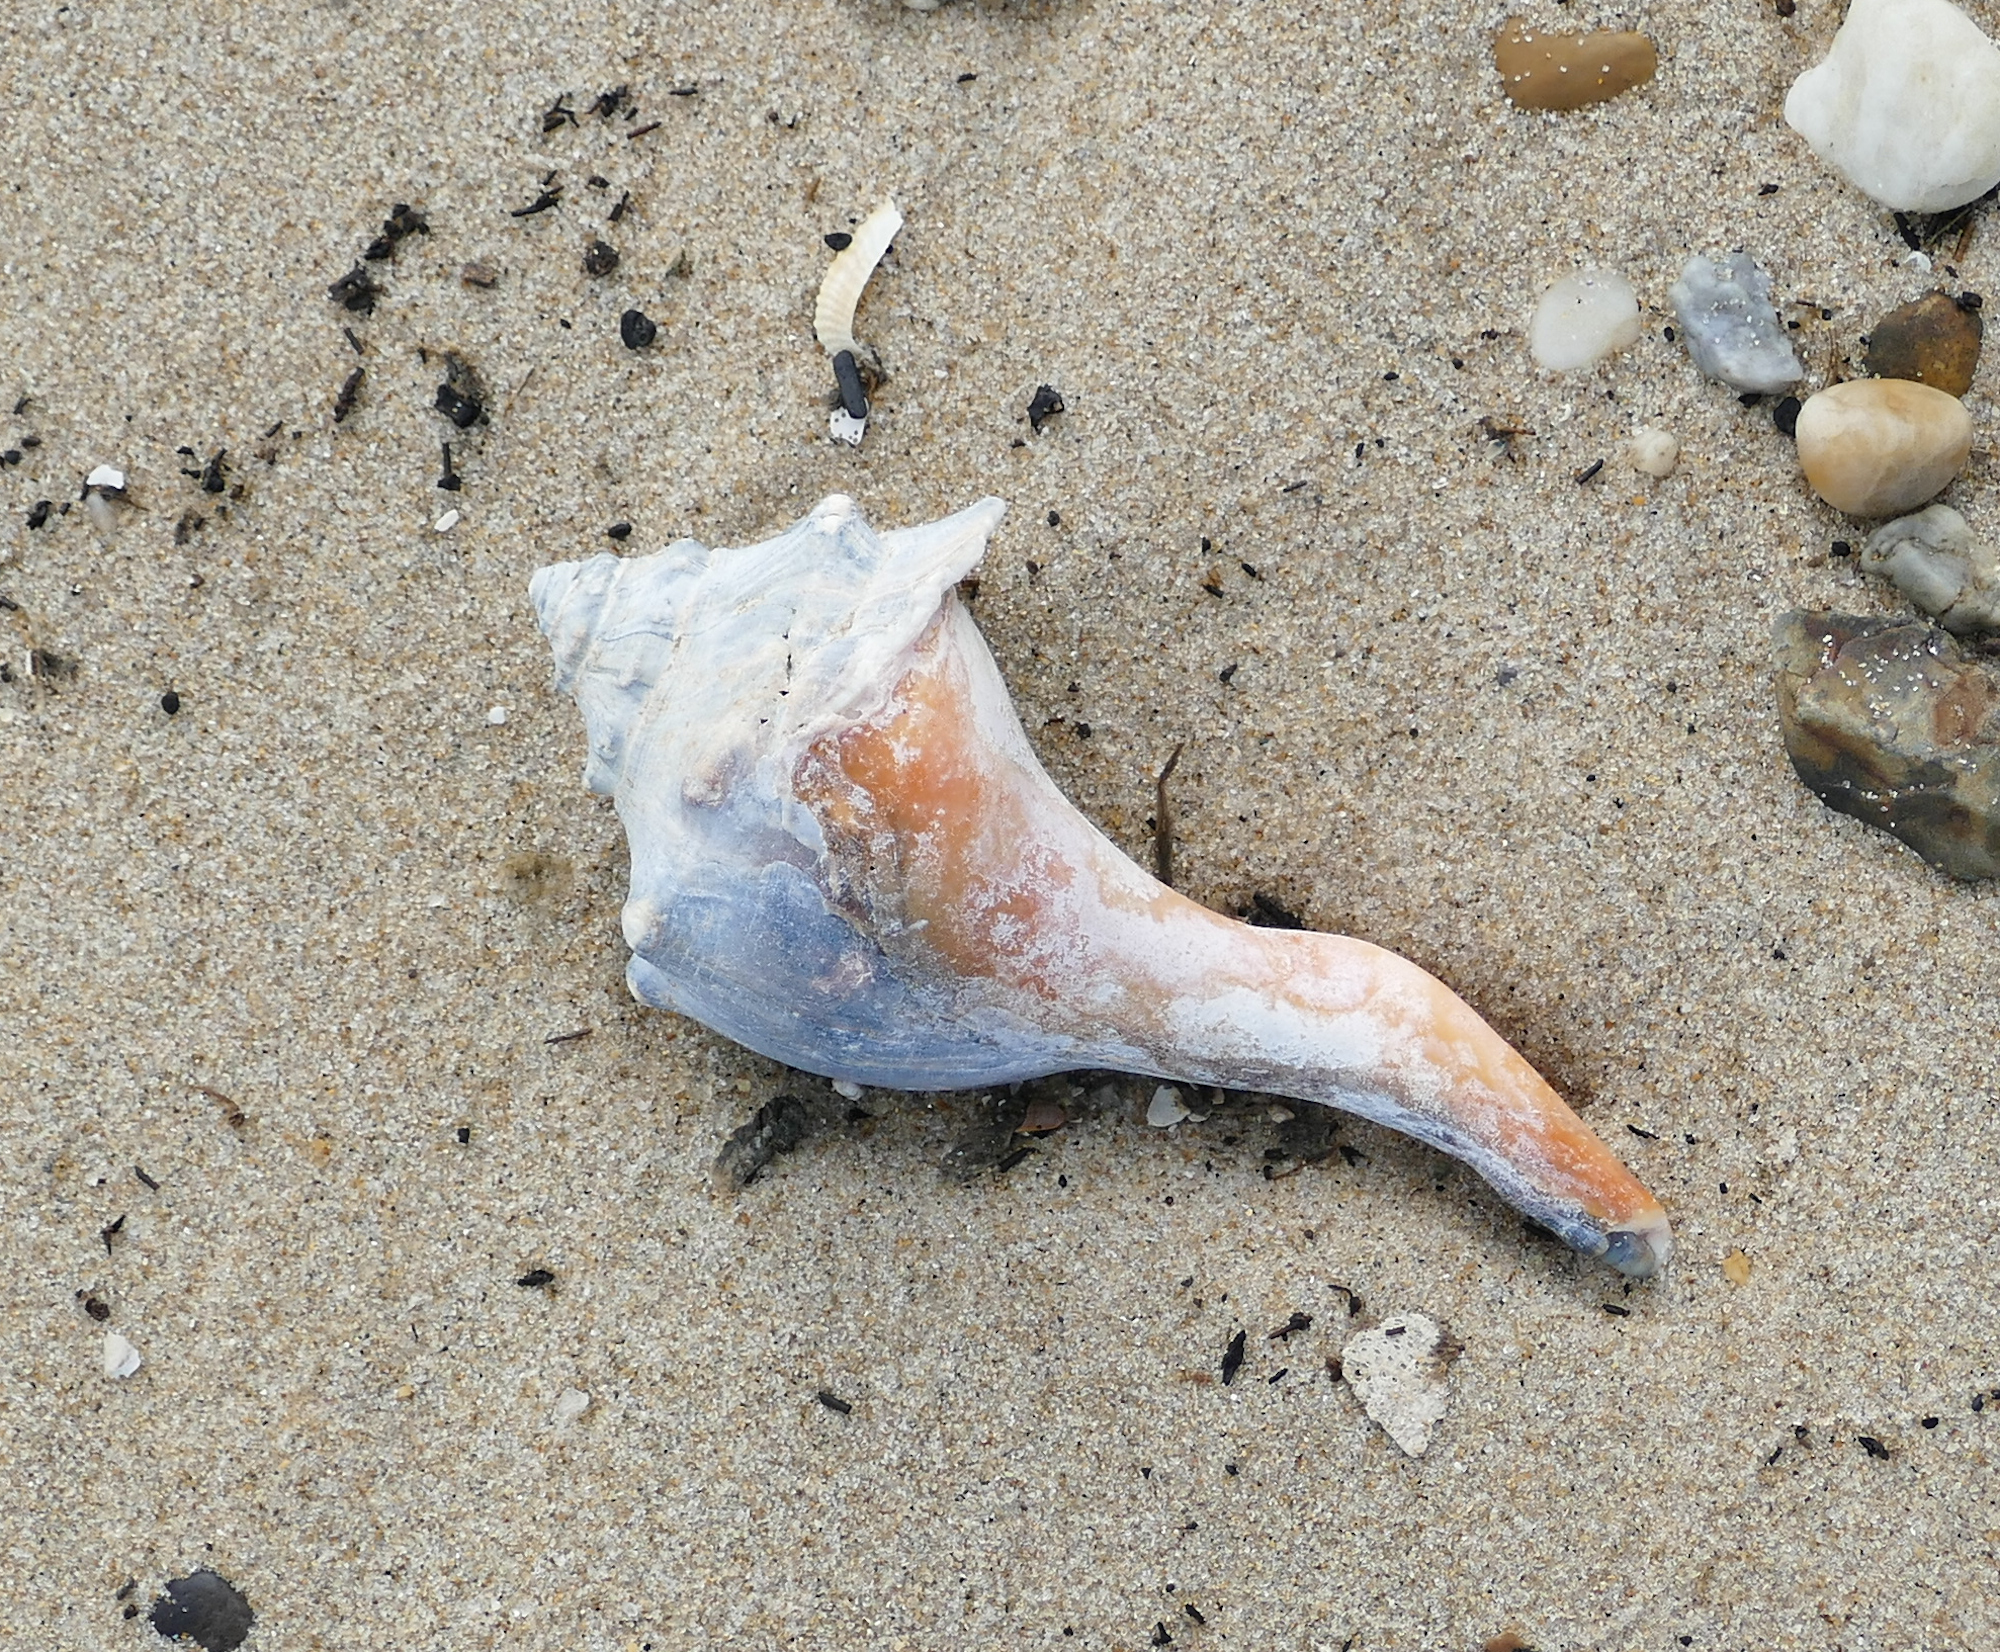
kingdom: Animalia
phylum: Mollusca
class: Gastropoda
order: Neogastropoda
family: Busyconidae
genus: Busycon
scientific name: Busycon carica
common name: Knobbed whelk
